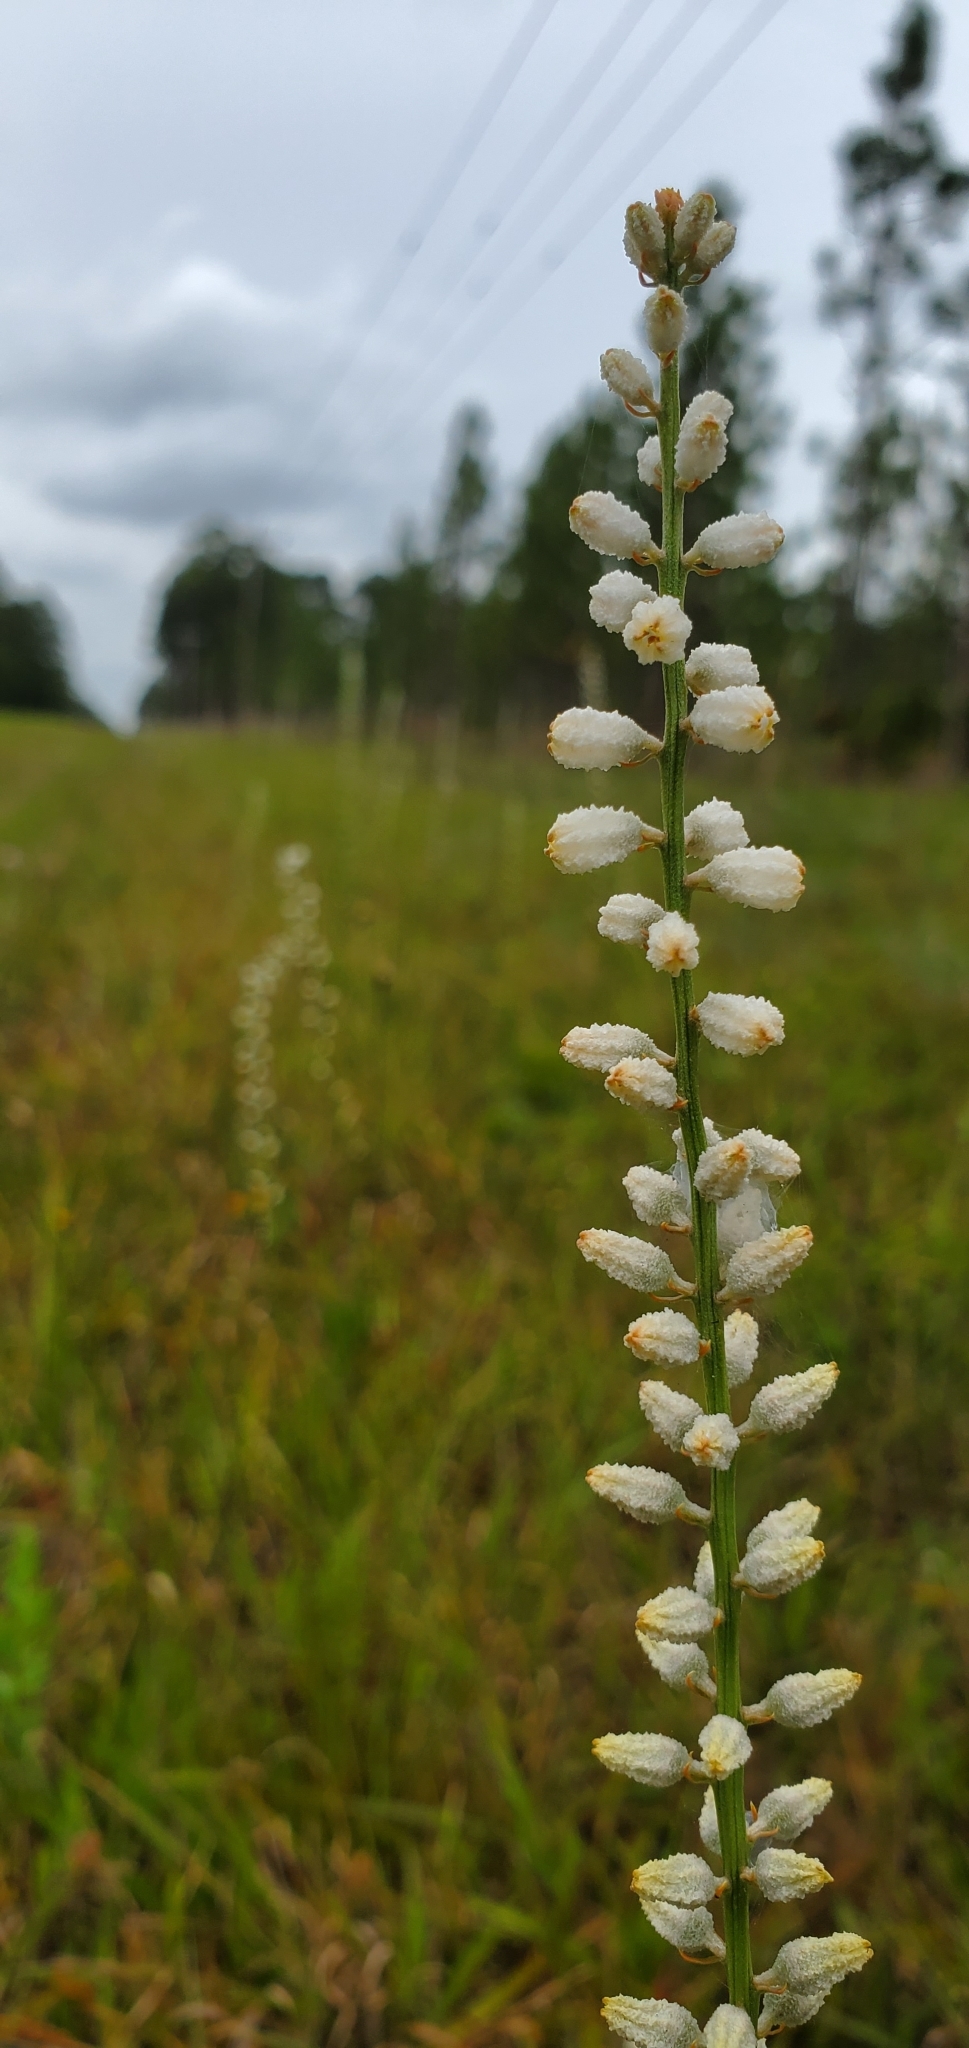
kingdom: Plantae
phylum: Tracheophyta
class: Liliopsida
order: Dioscoreales
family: Nartheciaceae
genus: Aletris
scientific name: Aletris obovata
